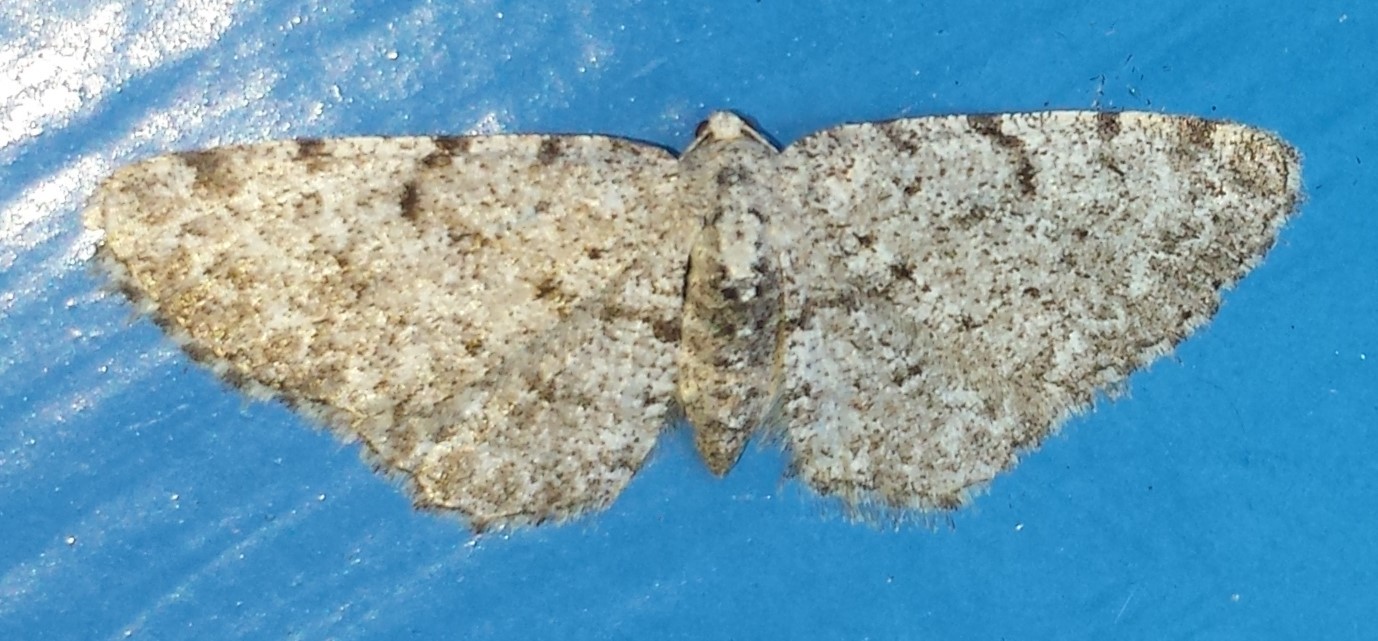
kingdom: Animalia
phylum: Arthropoda
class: Insecta
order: Lepidoptera
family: Geometridae
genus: Aethalura
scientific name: Aethalura intertexta
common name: Four-barred gray
